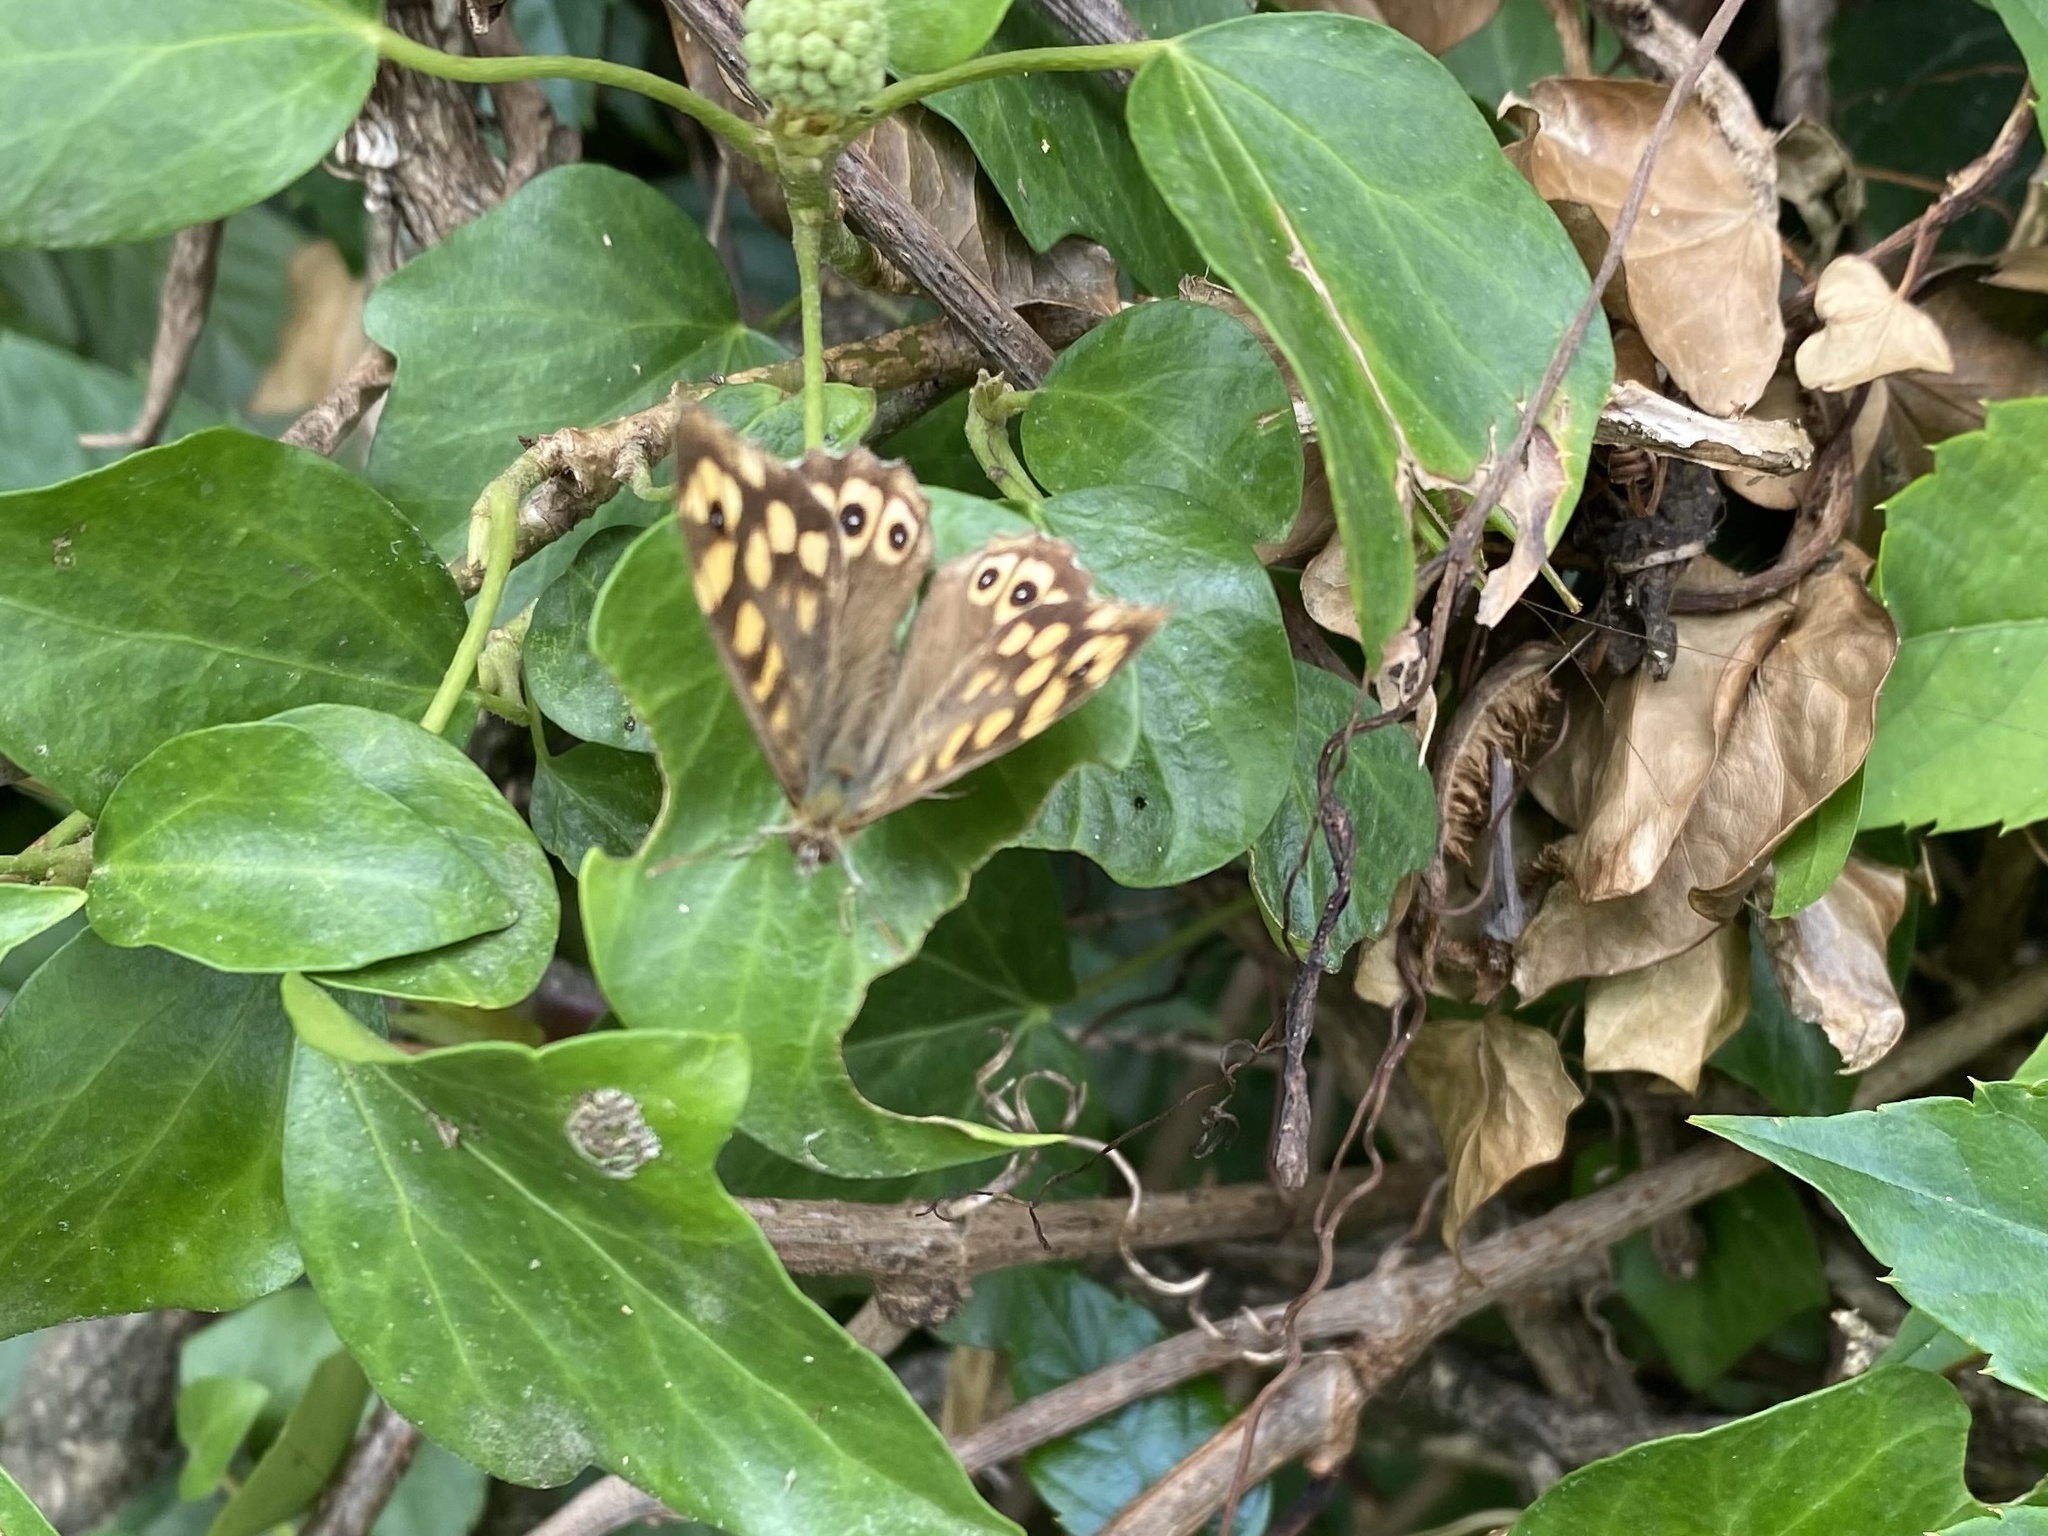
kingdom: Animalia
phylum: Arthropoda
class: Insecta
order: Lepidoptera
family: Nymphalidae
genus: Pararge
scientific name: Pararge aegeria
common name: Speckled wood
